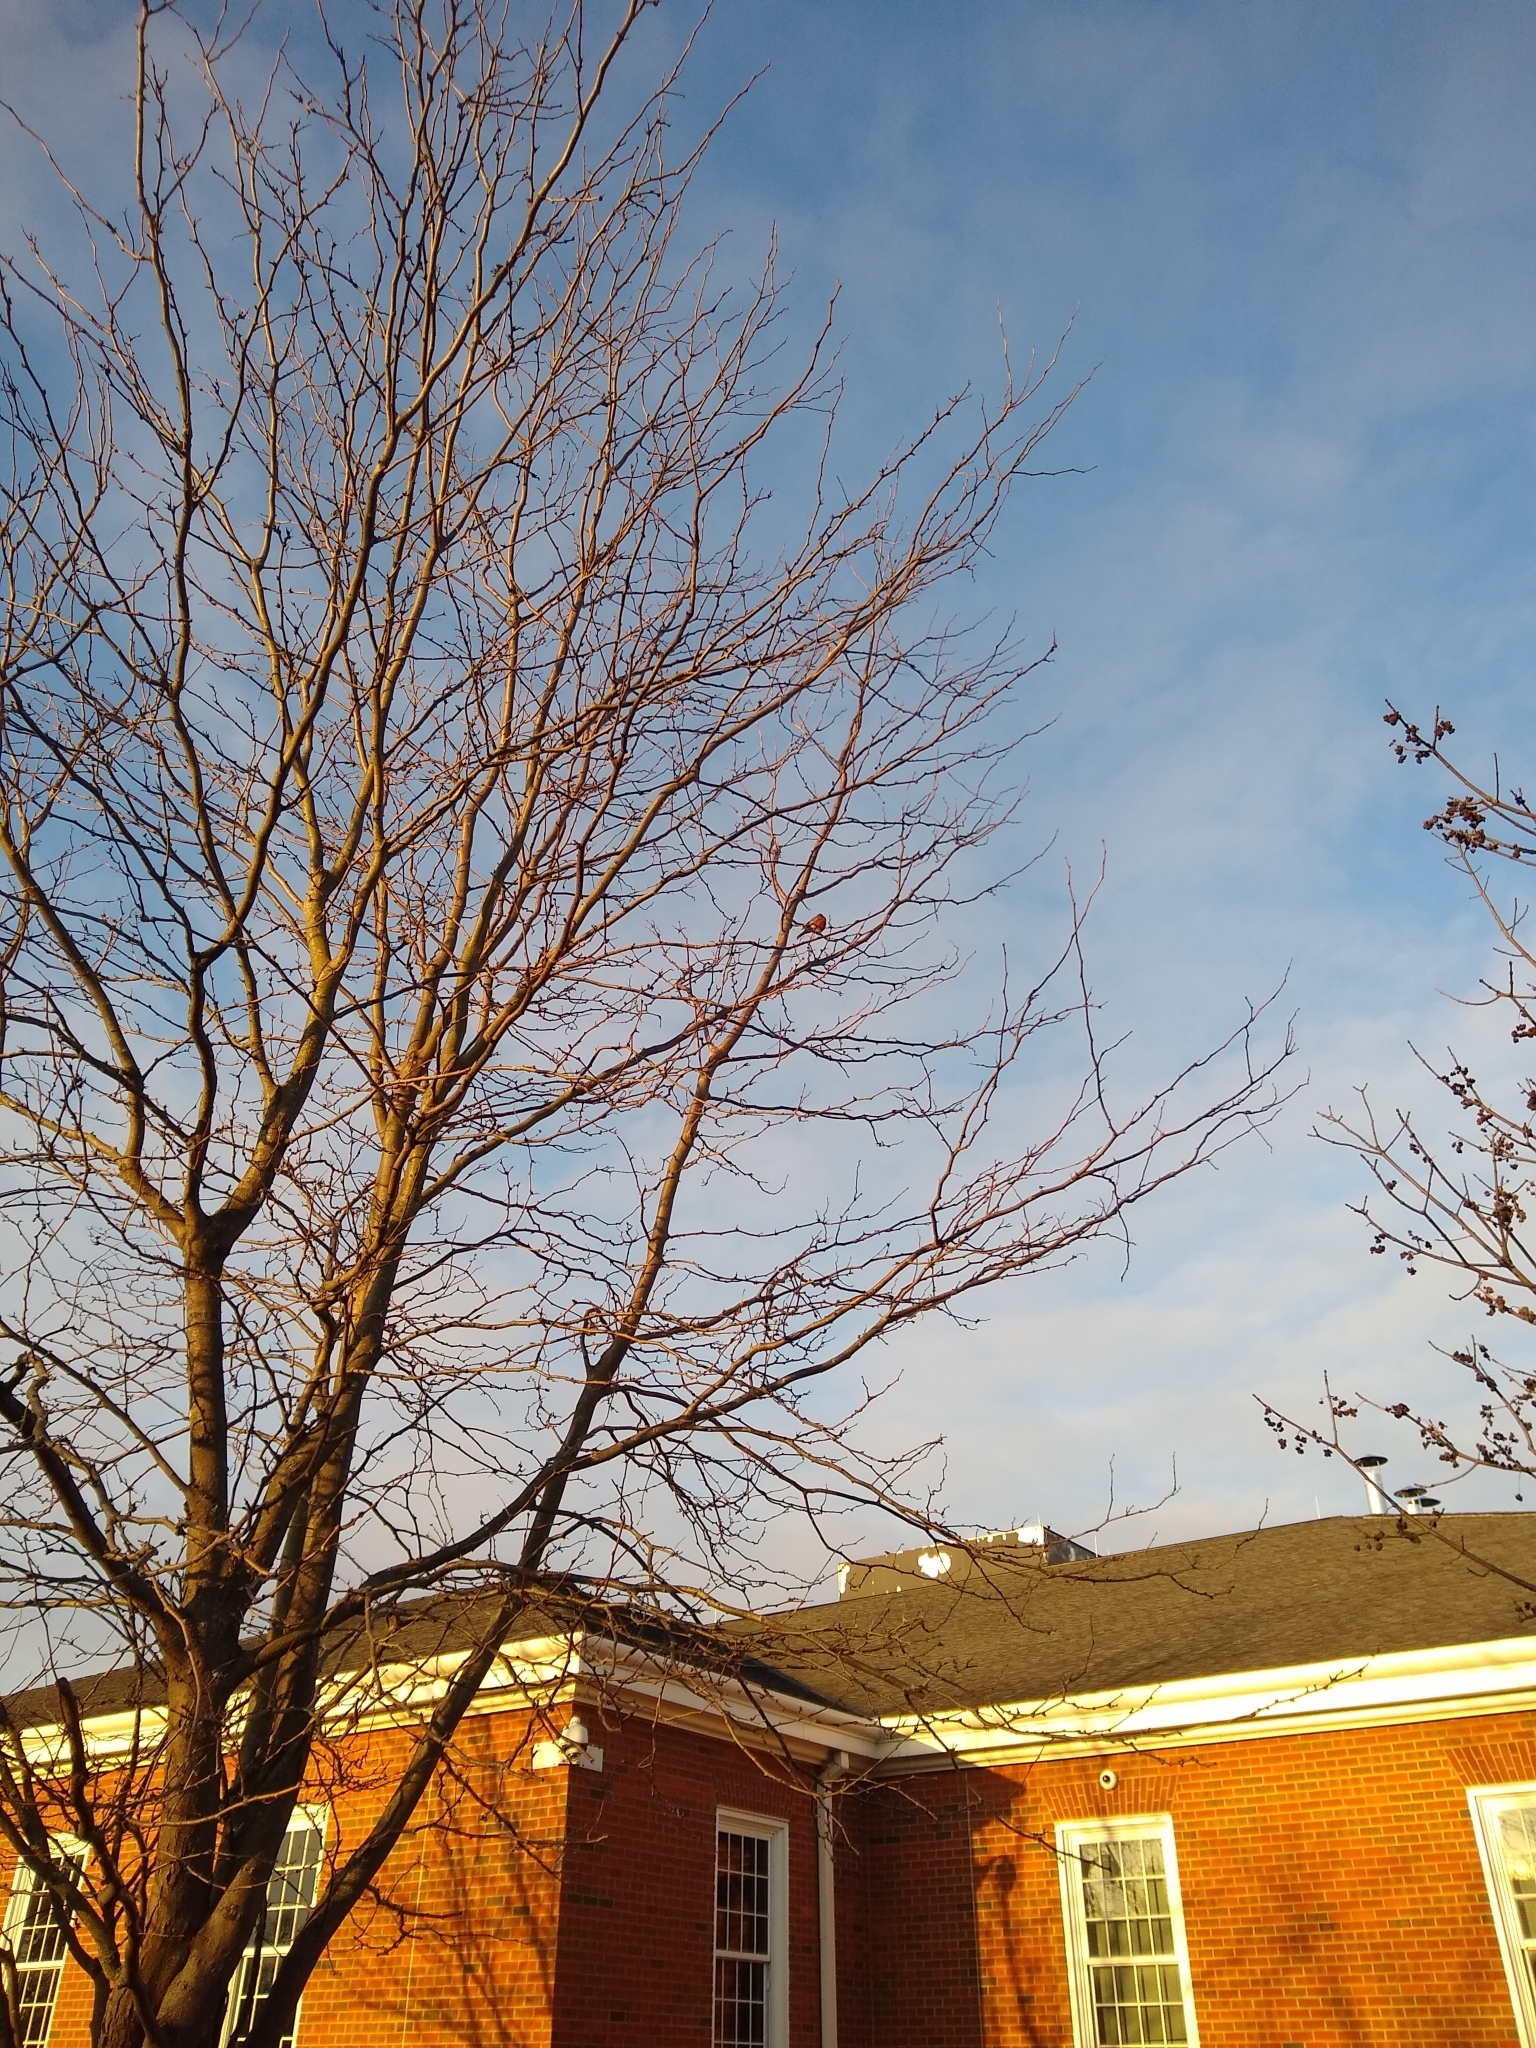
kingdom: Animalia
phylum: Chordata
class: Aves
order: Passeriformes
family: Turdidae
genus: Turdus
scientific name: Turdus migratorius
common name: American robin
